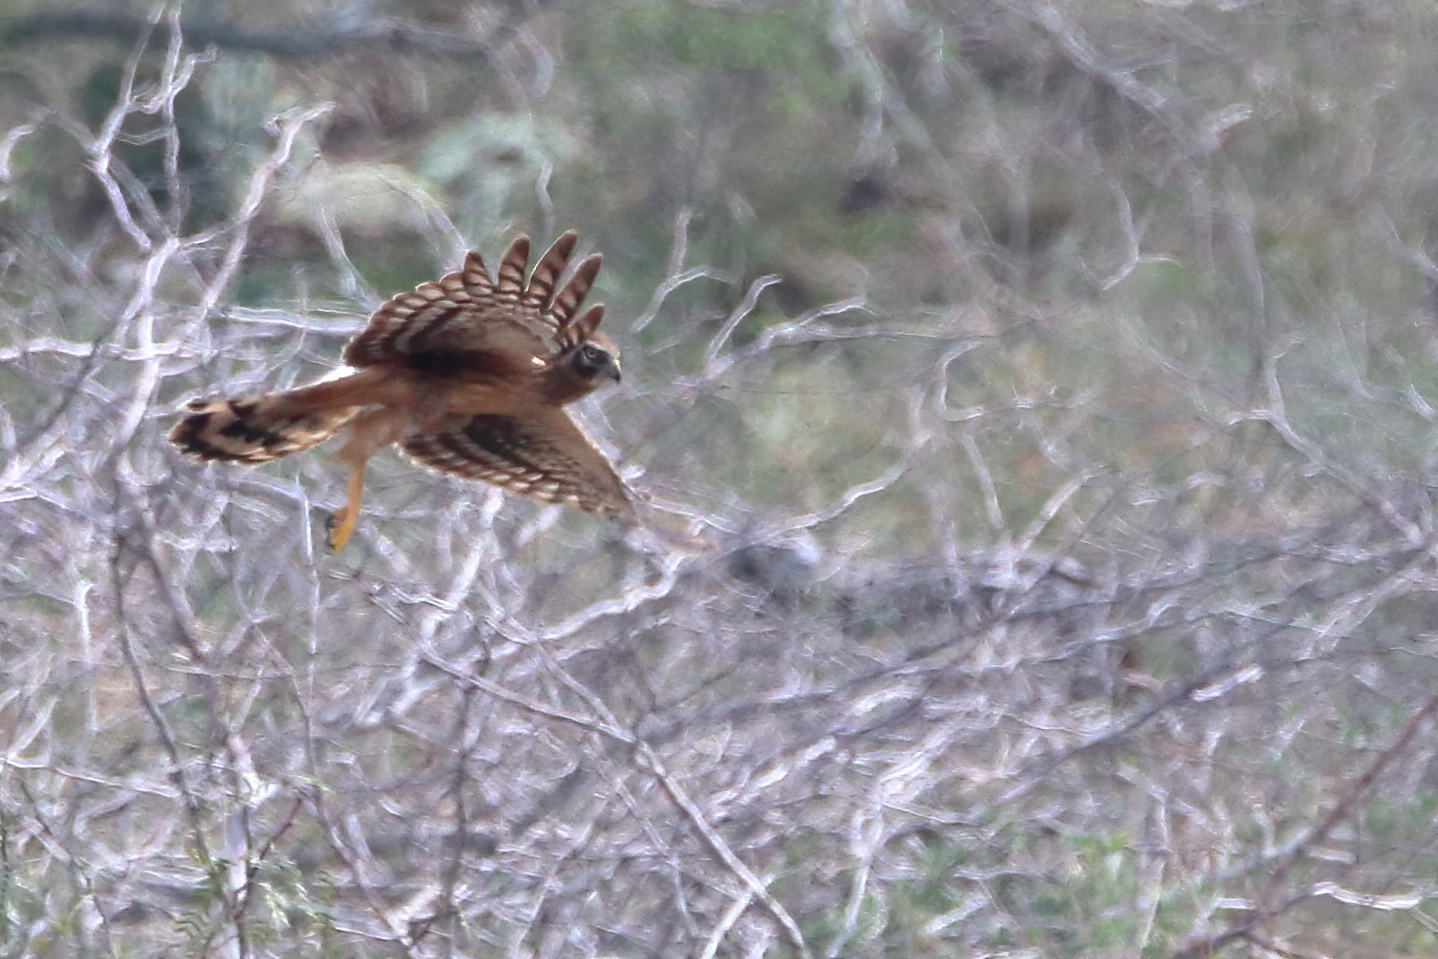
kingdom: Animalia
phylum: Chordata
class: Aves
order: Accipitriformes
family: Accipitridae
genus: Circus
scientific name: Circus cyaneus
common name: Hen harrier
